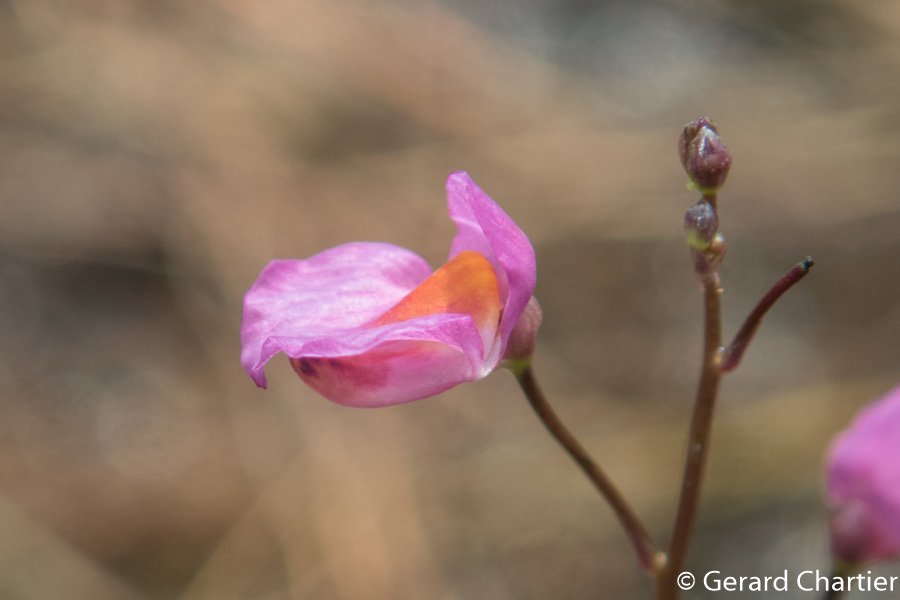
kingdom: Plantae
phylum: Tracheophyta
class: Magnoliopsida
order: Lamiales
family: Lentibulariaceae
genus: Utricularia
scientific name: Utricularia punctata
